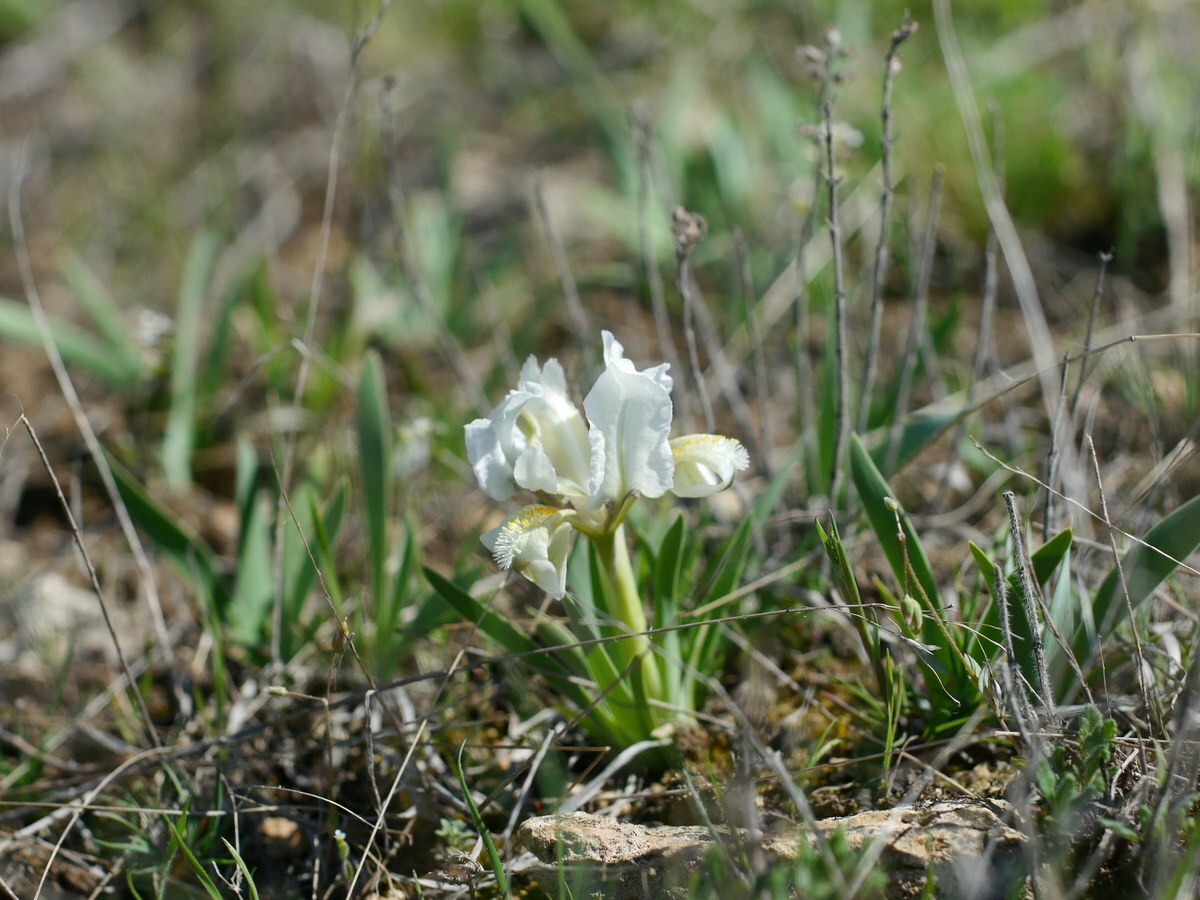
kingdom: Plantae
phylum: Tracheophyta
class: Liliopsida
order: Asparagales
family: Iridaceae
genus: Iris
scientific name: Iris pumila
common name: Dwarf iris
